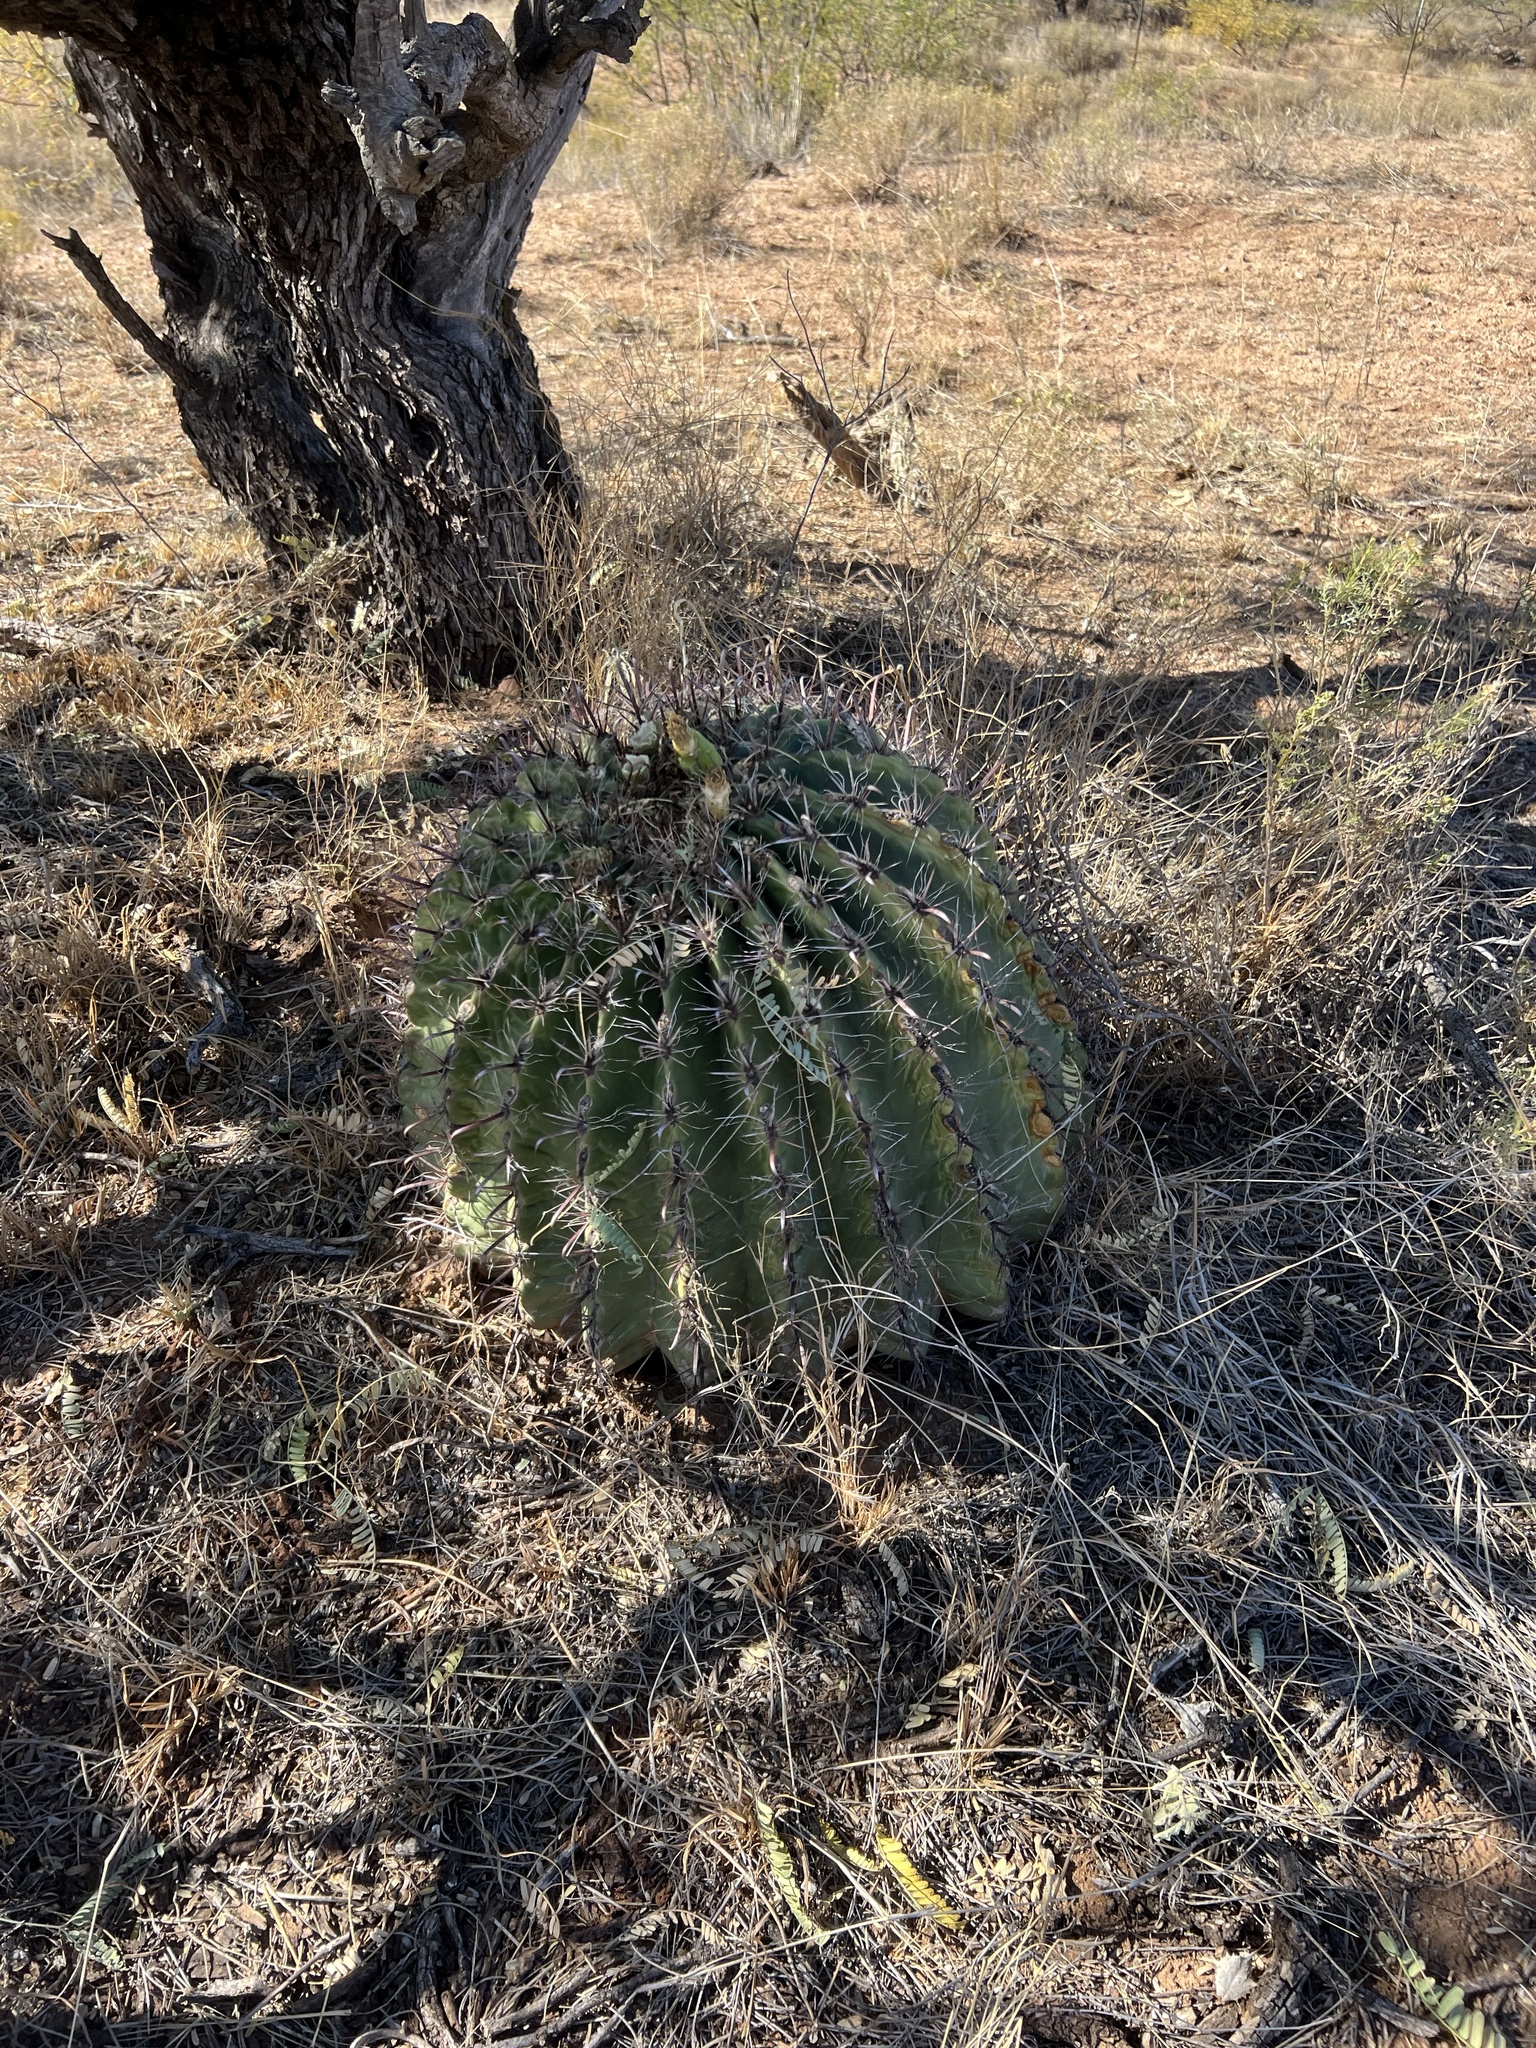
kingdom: Plantae
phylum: Tracheophyta
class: Magnoliopsida
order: Caryophyllales
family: Cactaceae
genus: Ferocactus
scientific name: Ferocactus wislizeni
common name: Candy barrel cactus
